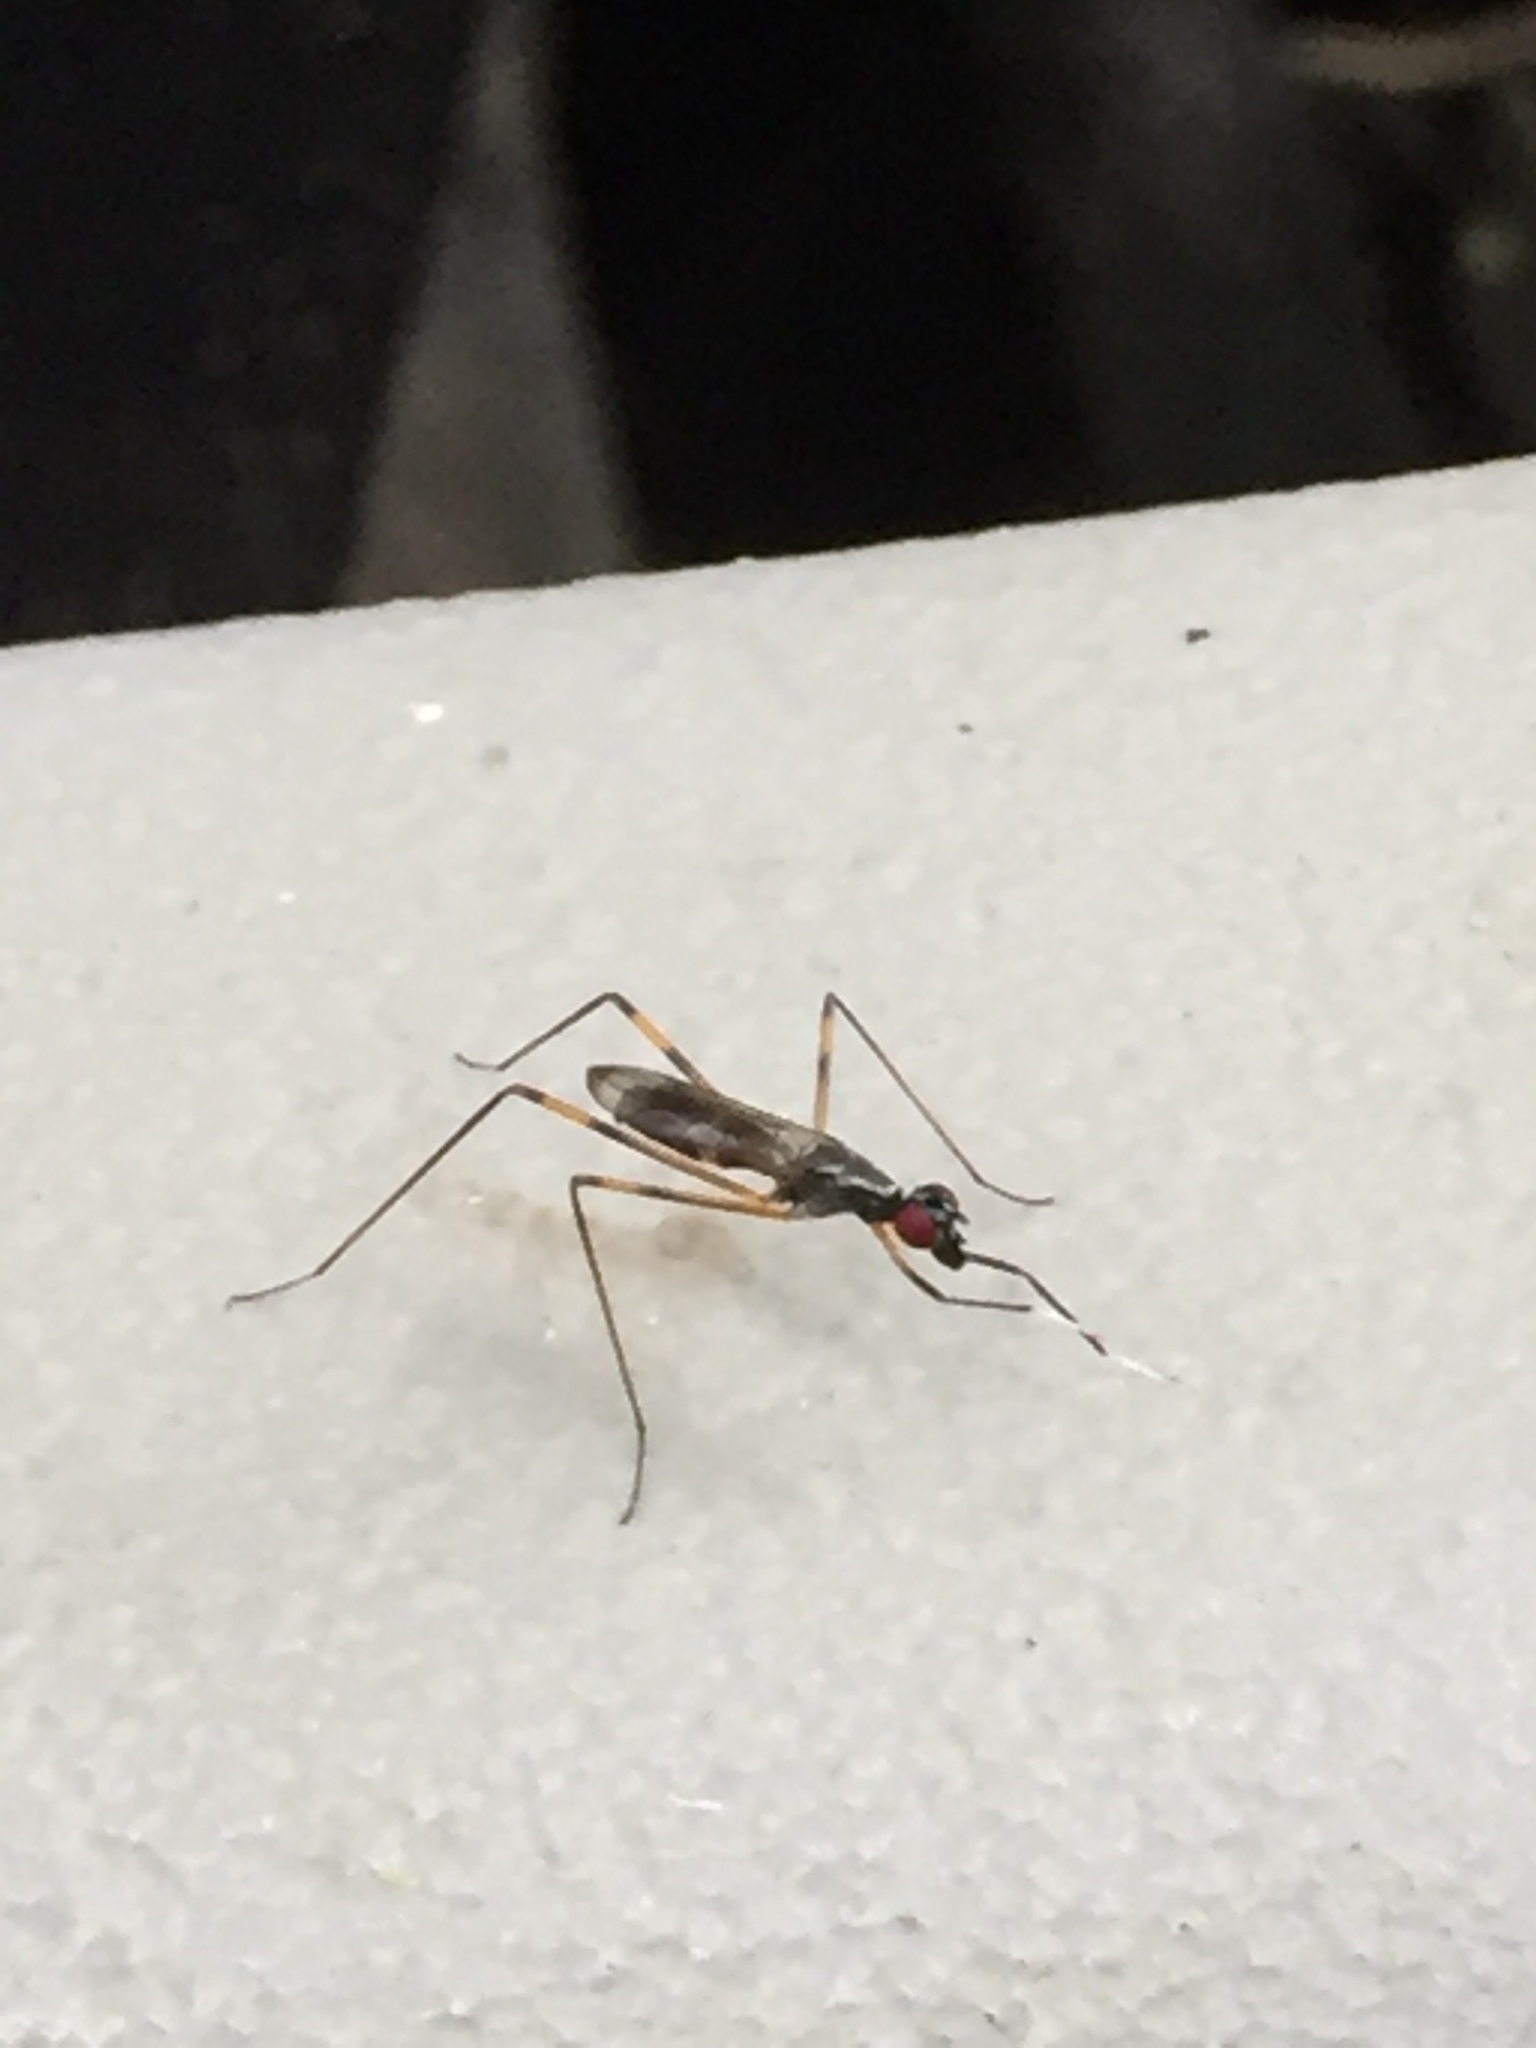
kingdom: Animalia
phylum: Arthropoda
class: Insecta
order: Diptera
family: Micropezidae
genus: Rainieria
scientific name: Rainieria antennaepes
